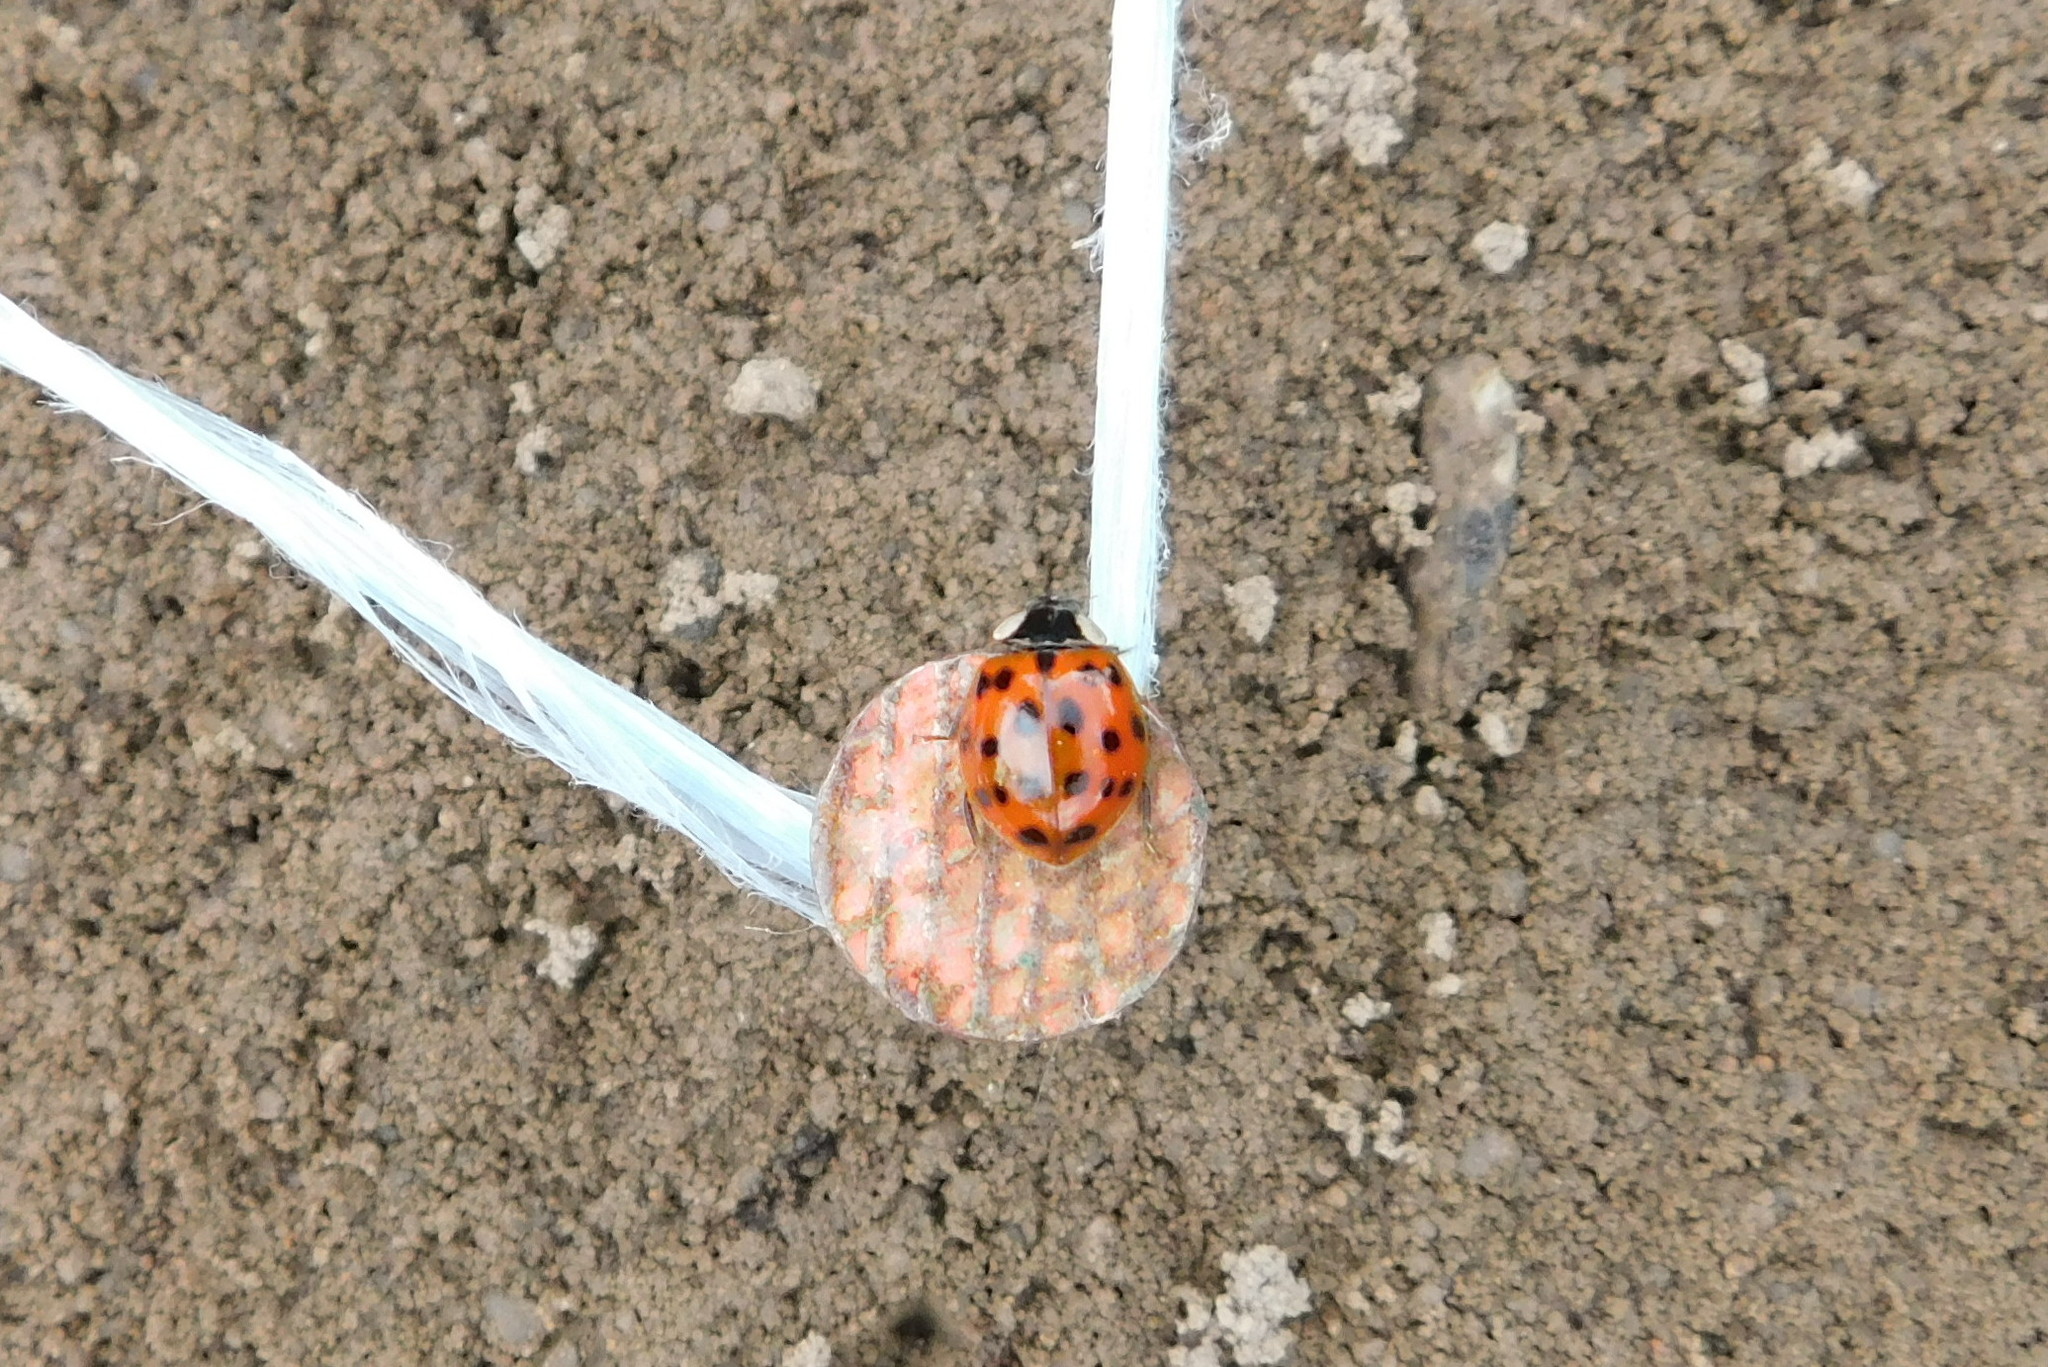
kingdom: Animalia
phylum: Arthropoda
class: Insecta
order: Coleoptera
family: Coccinellidae
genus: Harmonia
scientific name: Harmonia axyridis
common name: Harlequin ladybird
